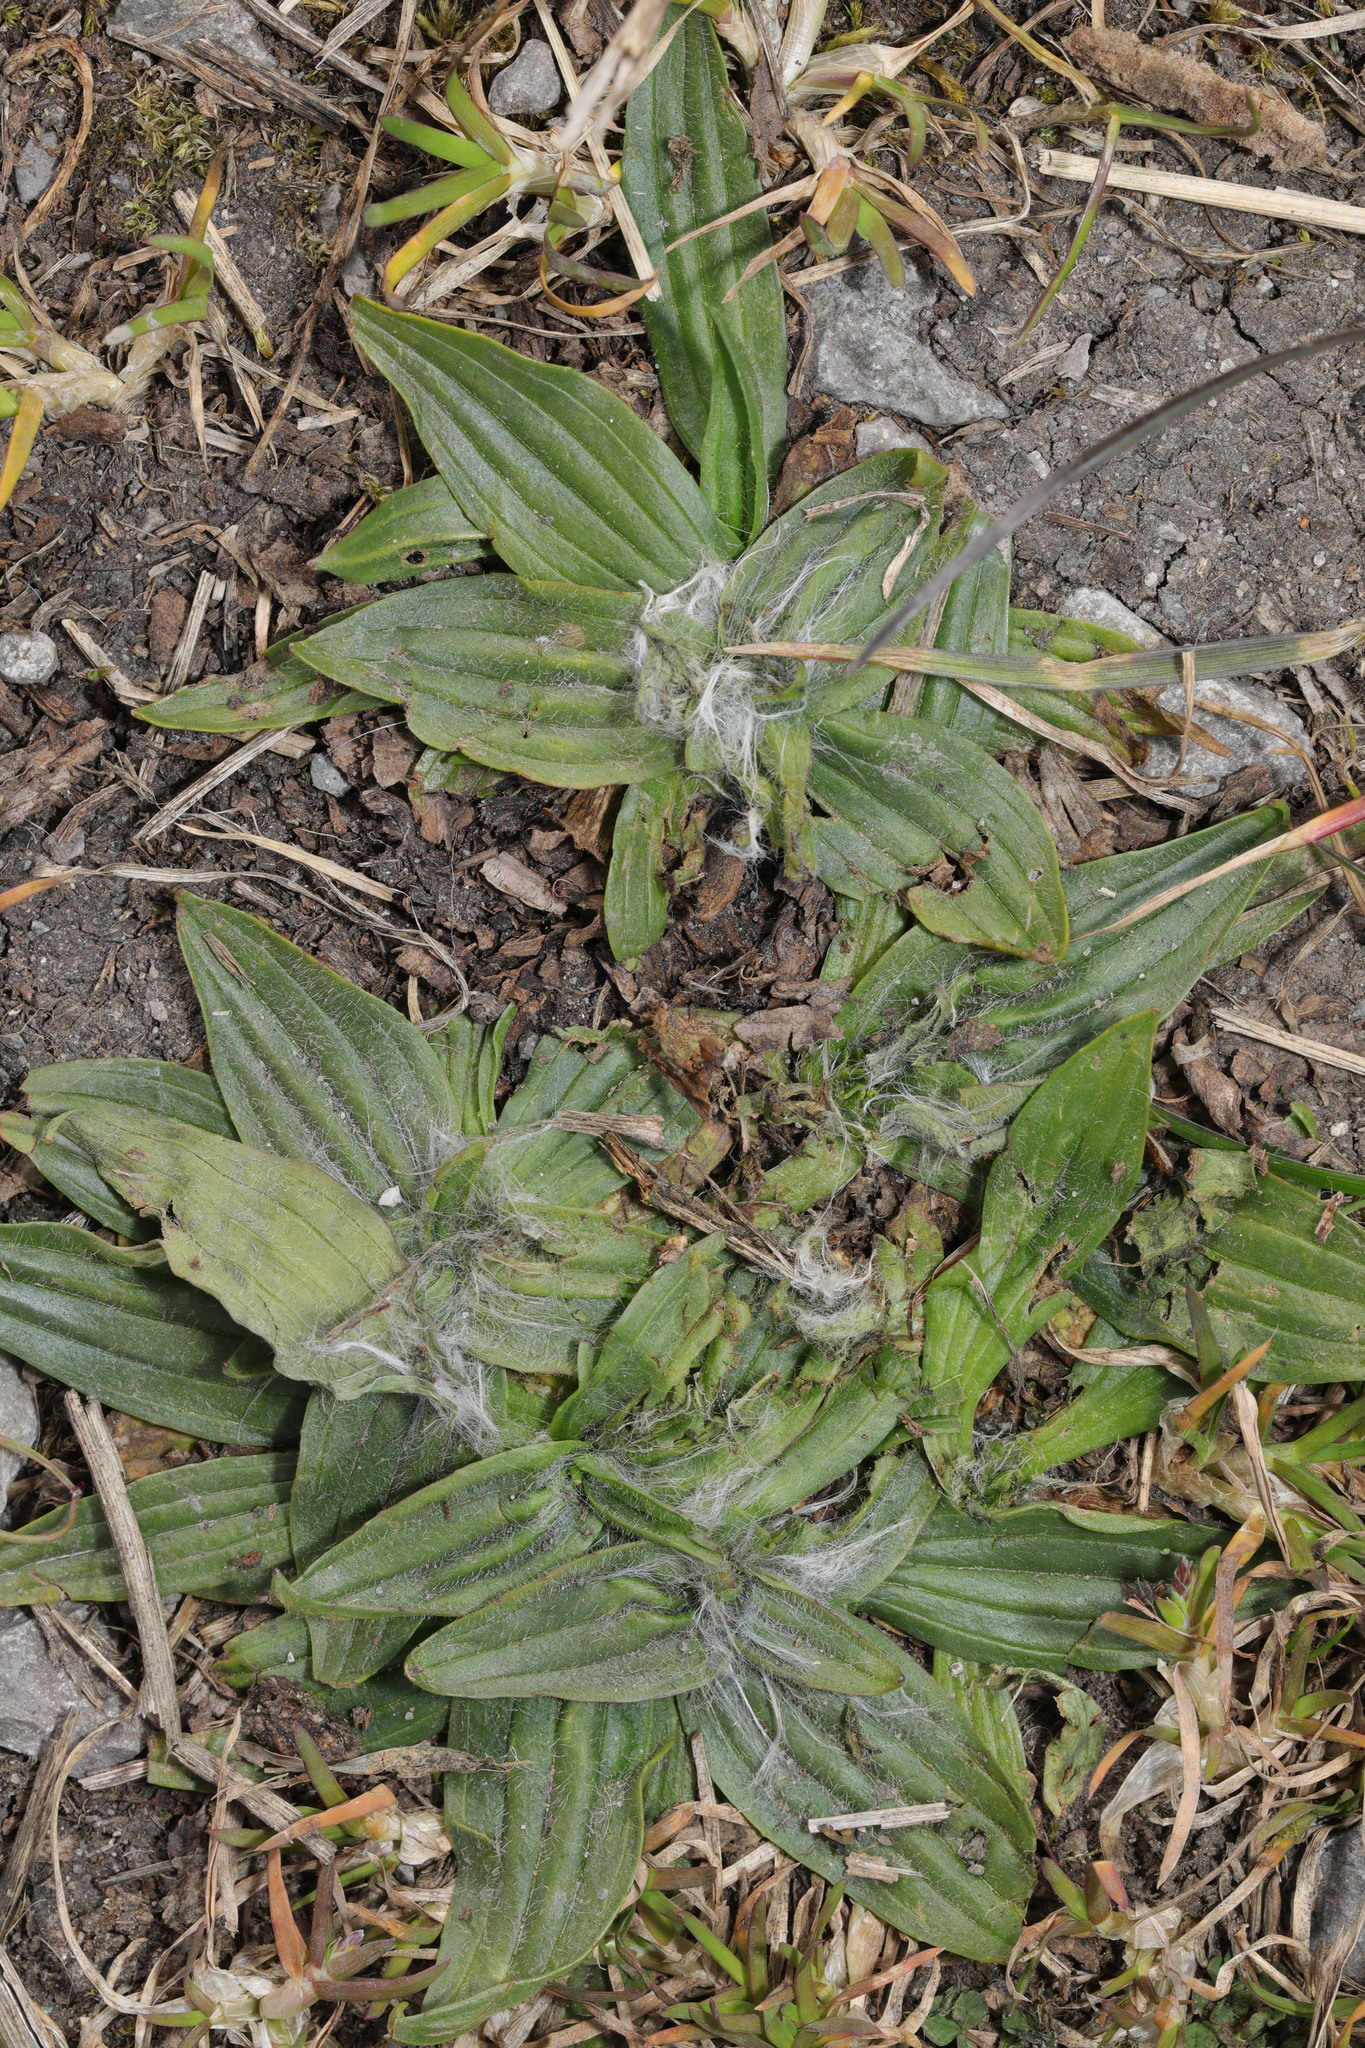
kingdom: Plantae
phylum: Tracheophyta
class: Magnoliopsida
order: Lamiales
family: Plantaginaceae
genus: Plantago
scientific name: Plantago lanceolata
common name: Ribwort plantain
